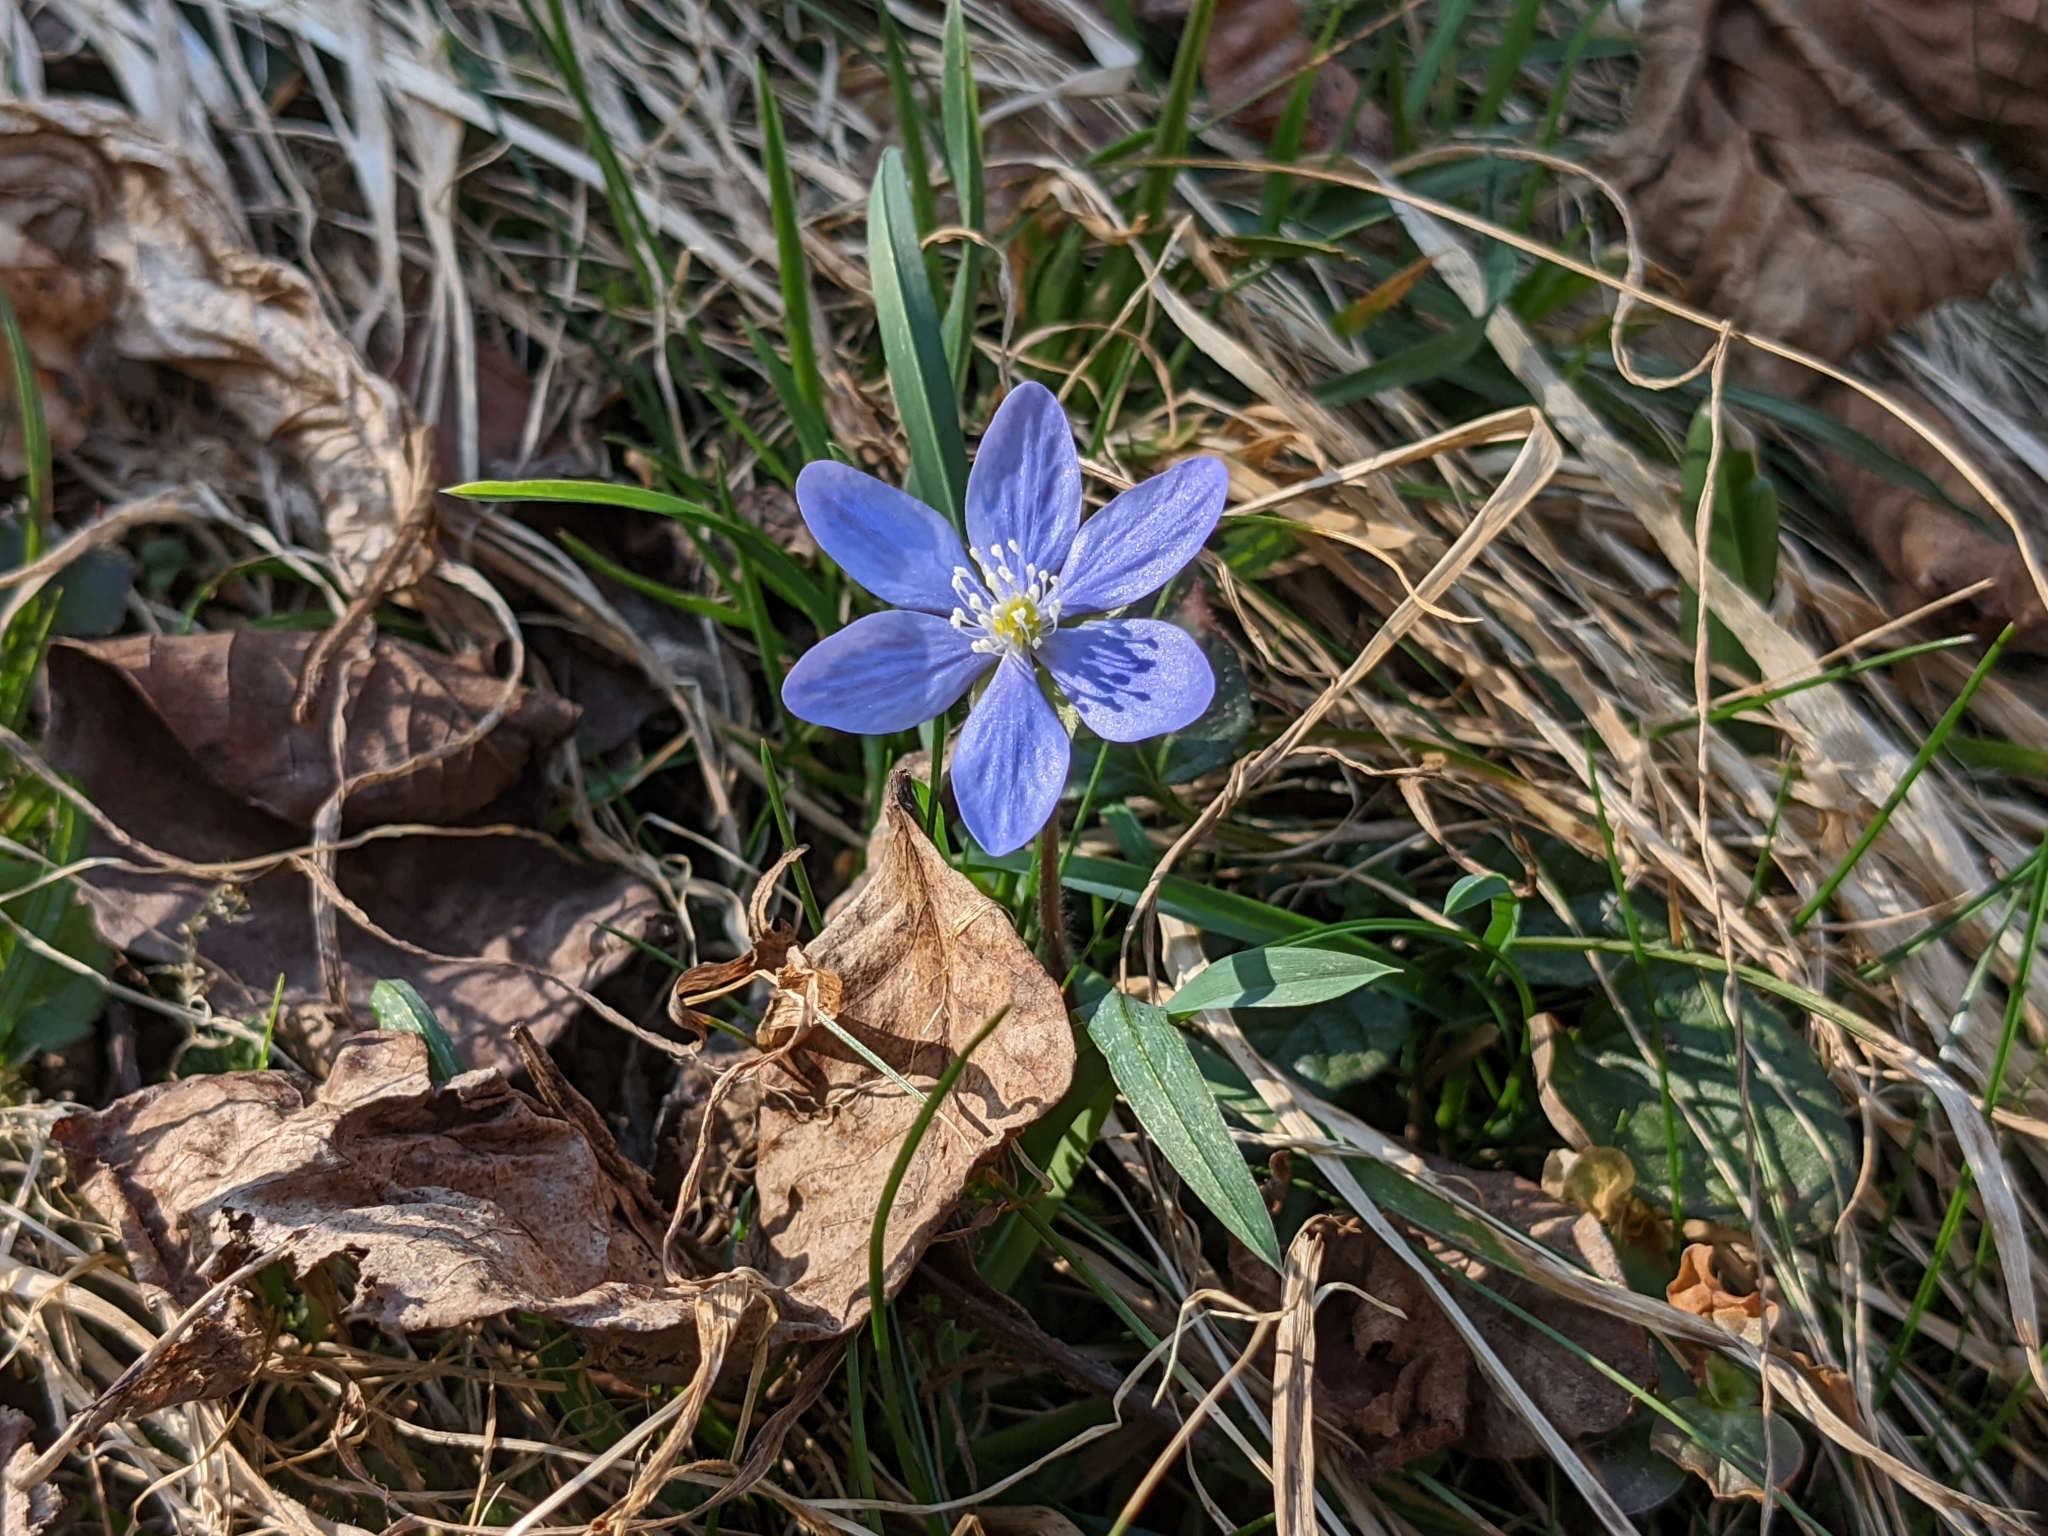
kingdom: Plantae
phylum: Tracheophyta
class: Magnoliopsida
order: Ranunculales
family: Ranunculaceae
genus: Hepatica
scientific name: Hepatica nobilis
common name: Liverleaf
